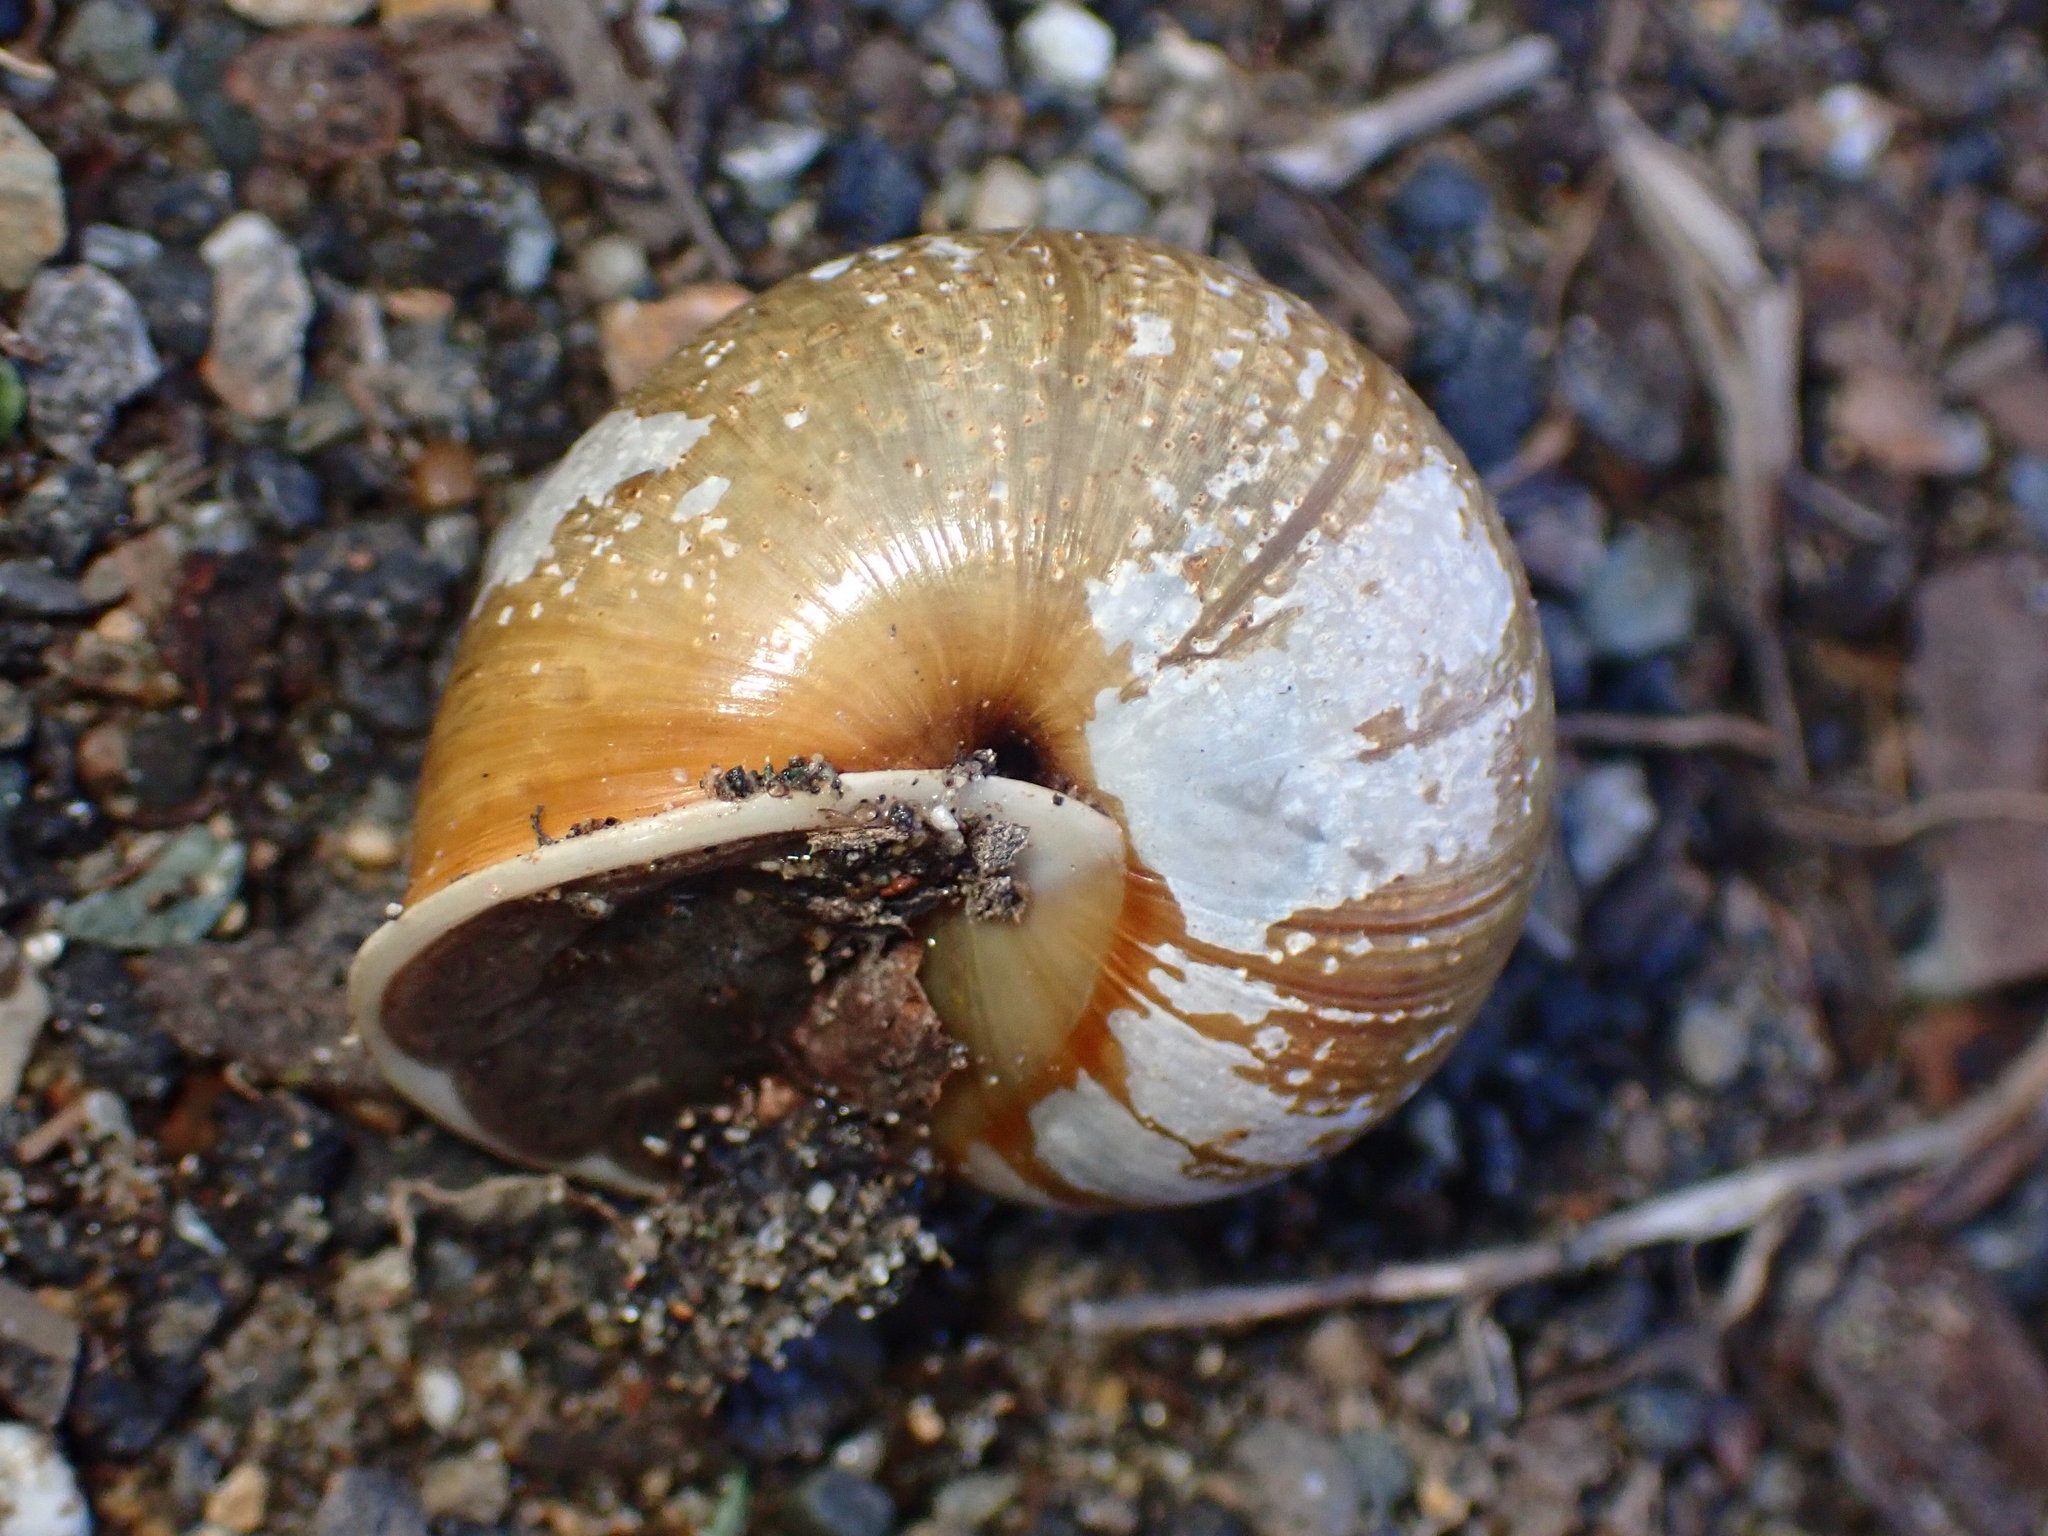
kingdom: Animalia
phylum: Mollusca
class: Gastropoda
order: Stylommatophora
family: Xanthonychidae
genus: Helminthoglypta
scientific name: Helminthoglypta stiversiana
